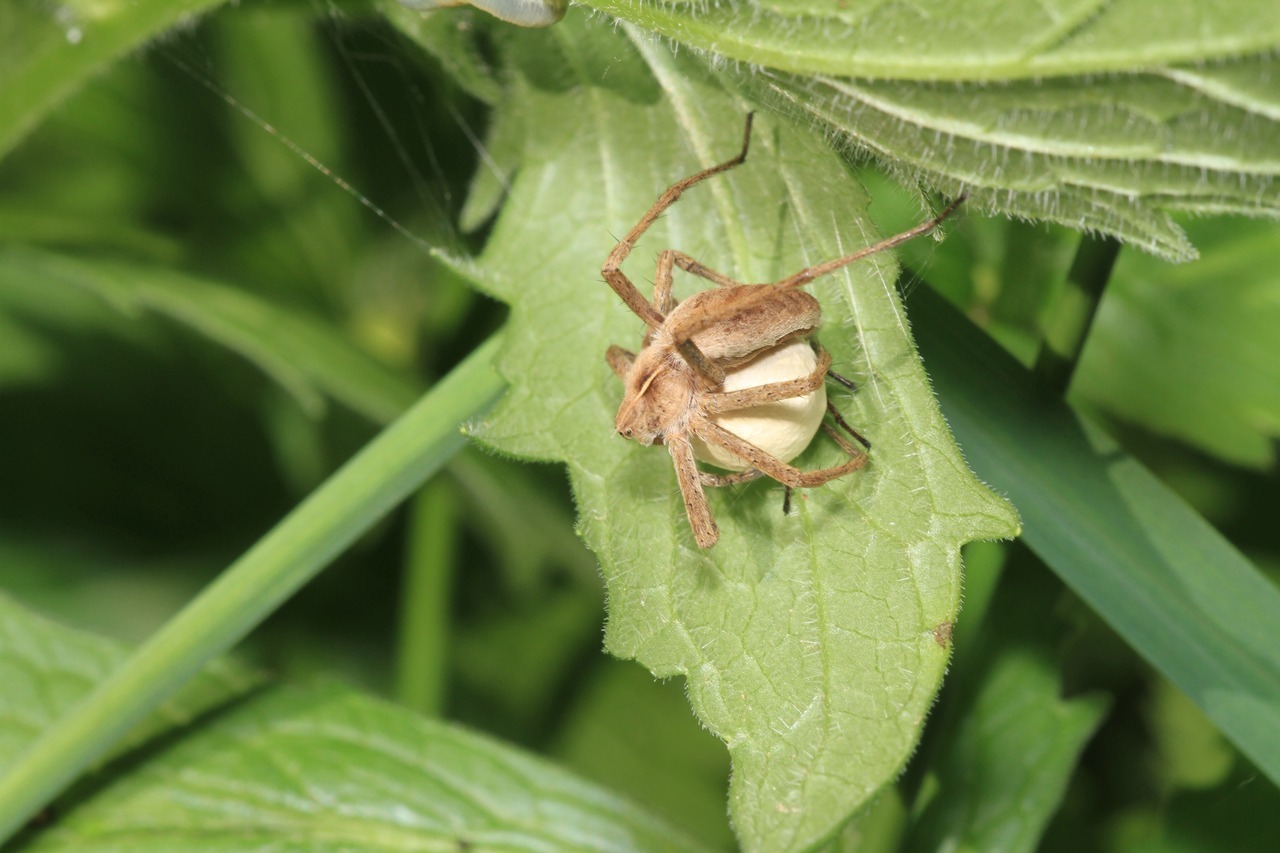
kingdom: Animalia
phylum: Arthropoda
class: Arachnida
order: Araneae
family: Pisauridae
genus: Pisaura
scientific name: Pisaura mirabilis
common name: Tent spider
